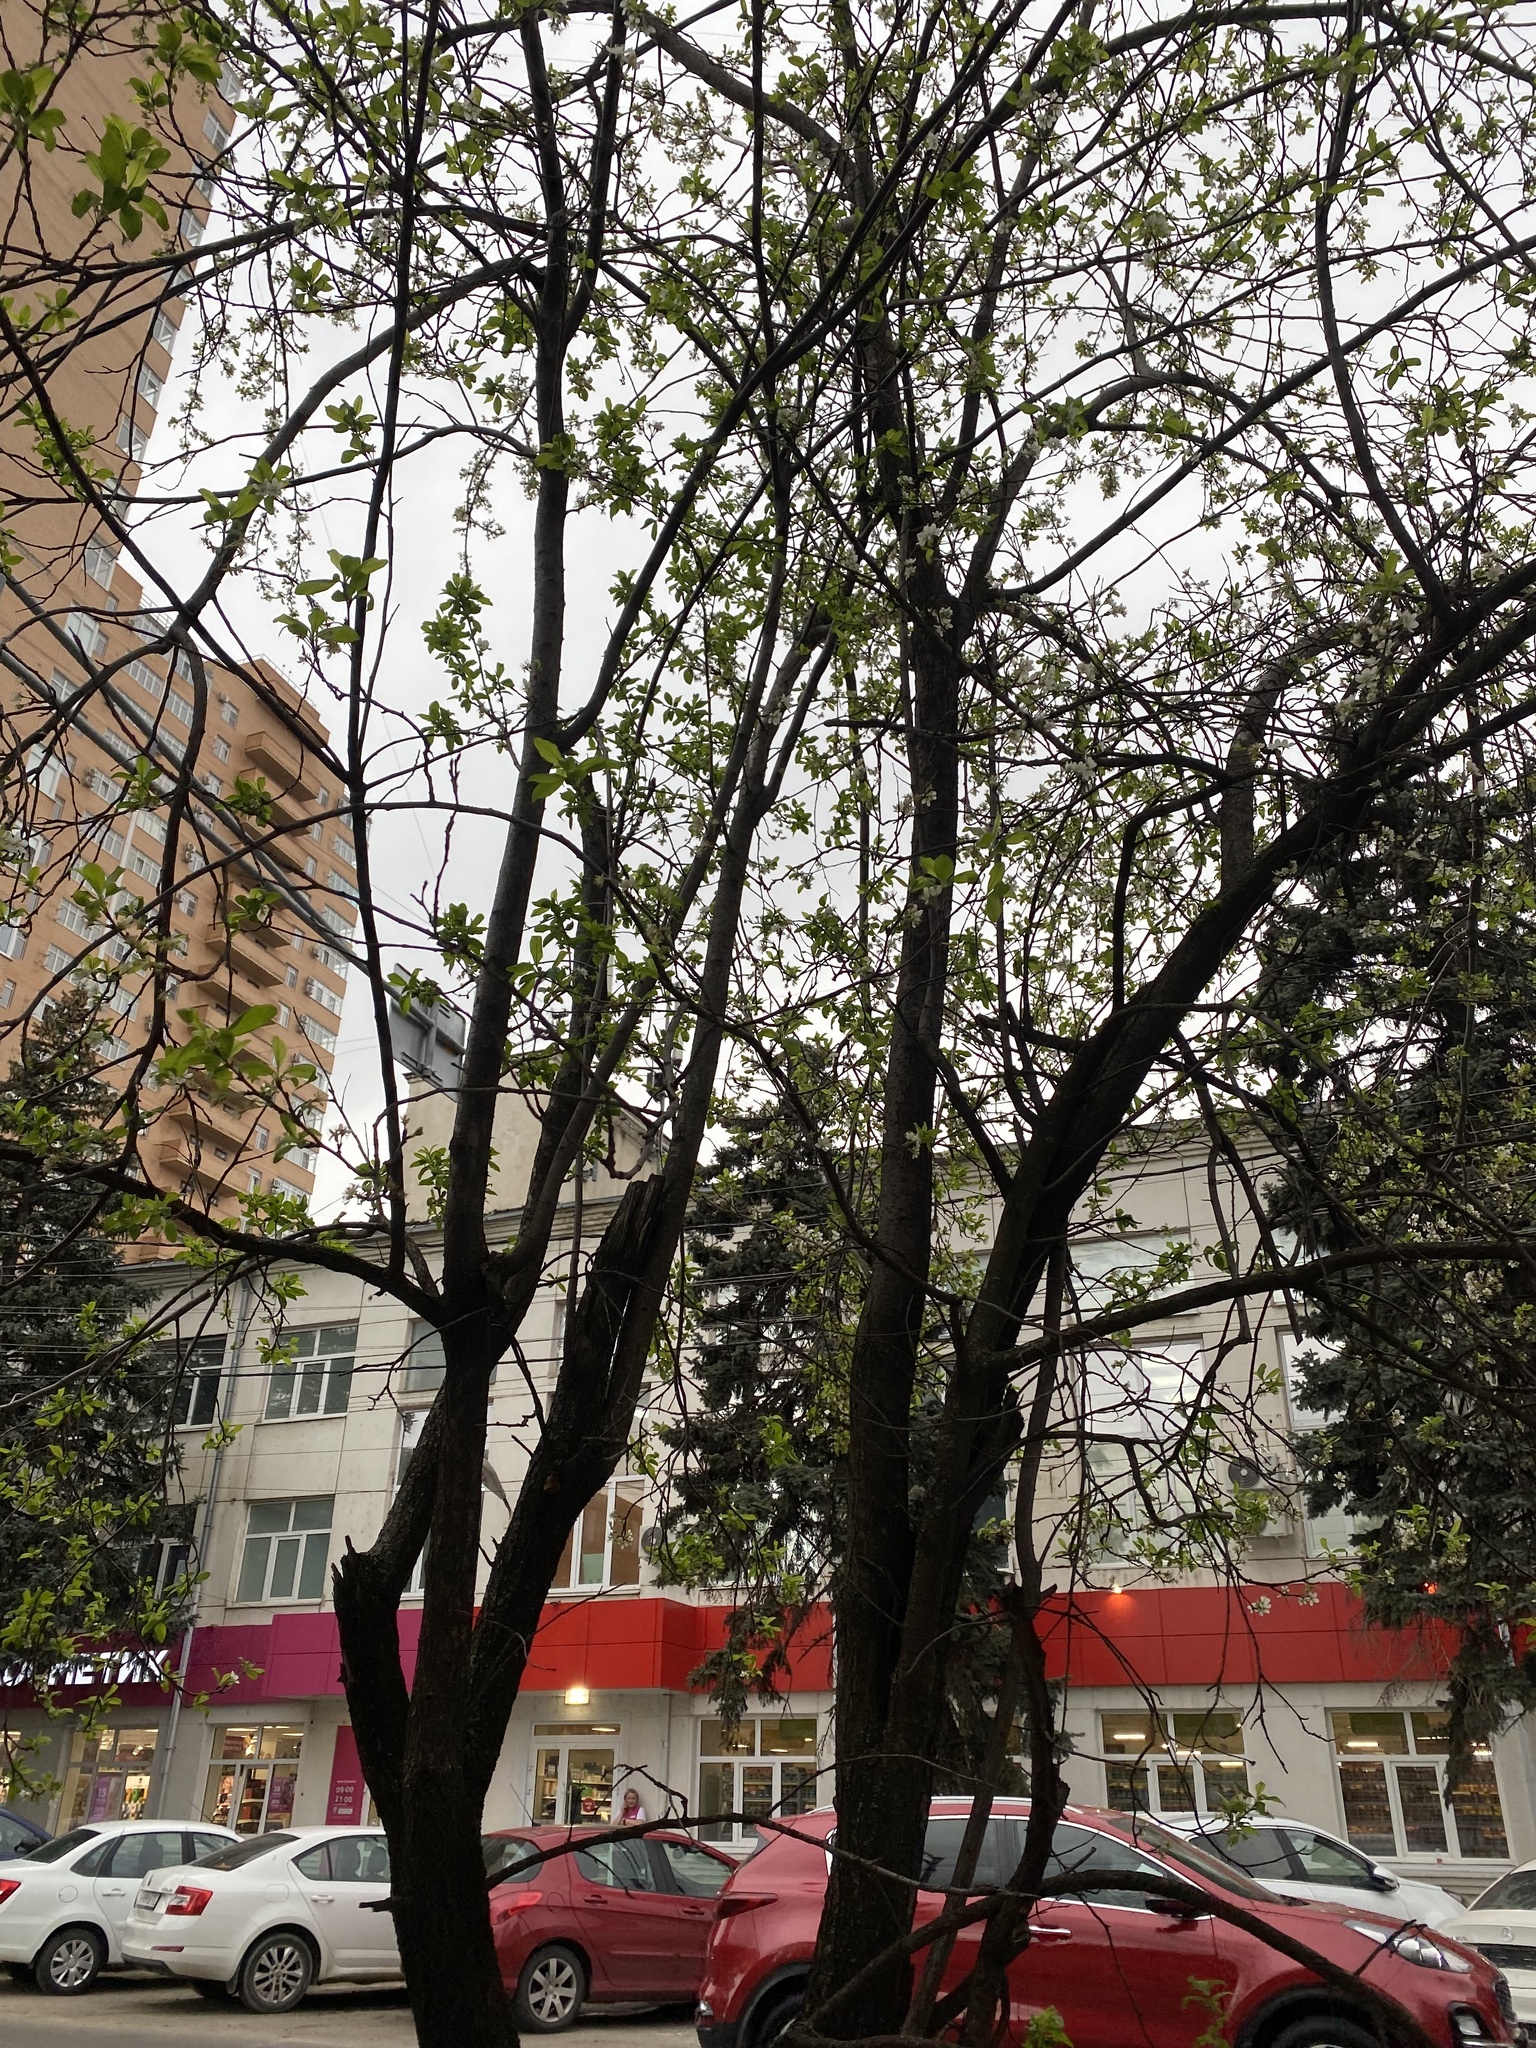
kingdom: Fungi
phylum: Basidiomycota
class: Agaricomycetes
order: Hymenochaetales
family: Hymenochaetaceae
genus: Phellinus
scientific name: Phellinus pomaceus
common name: Cushion bracket
